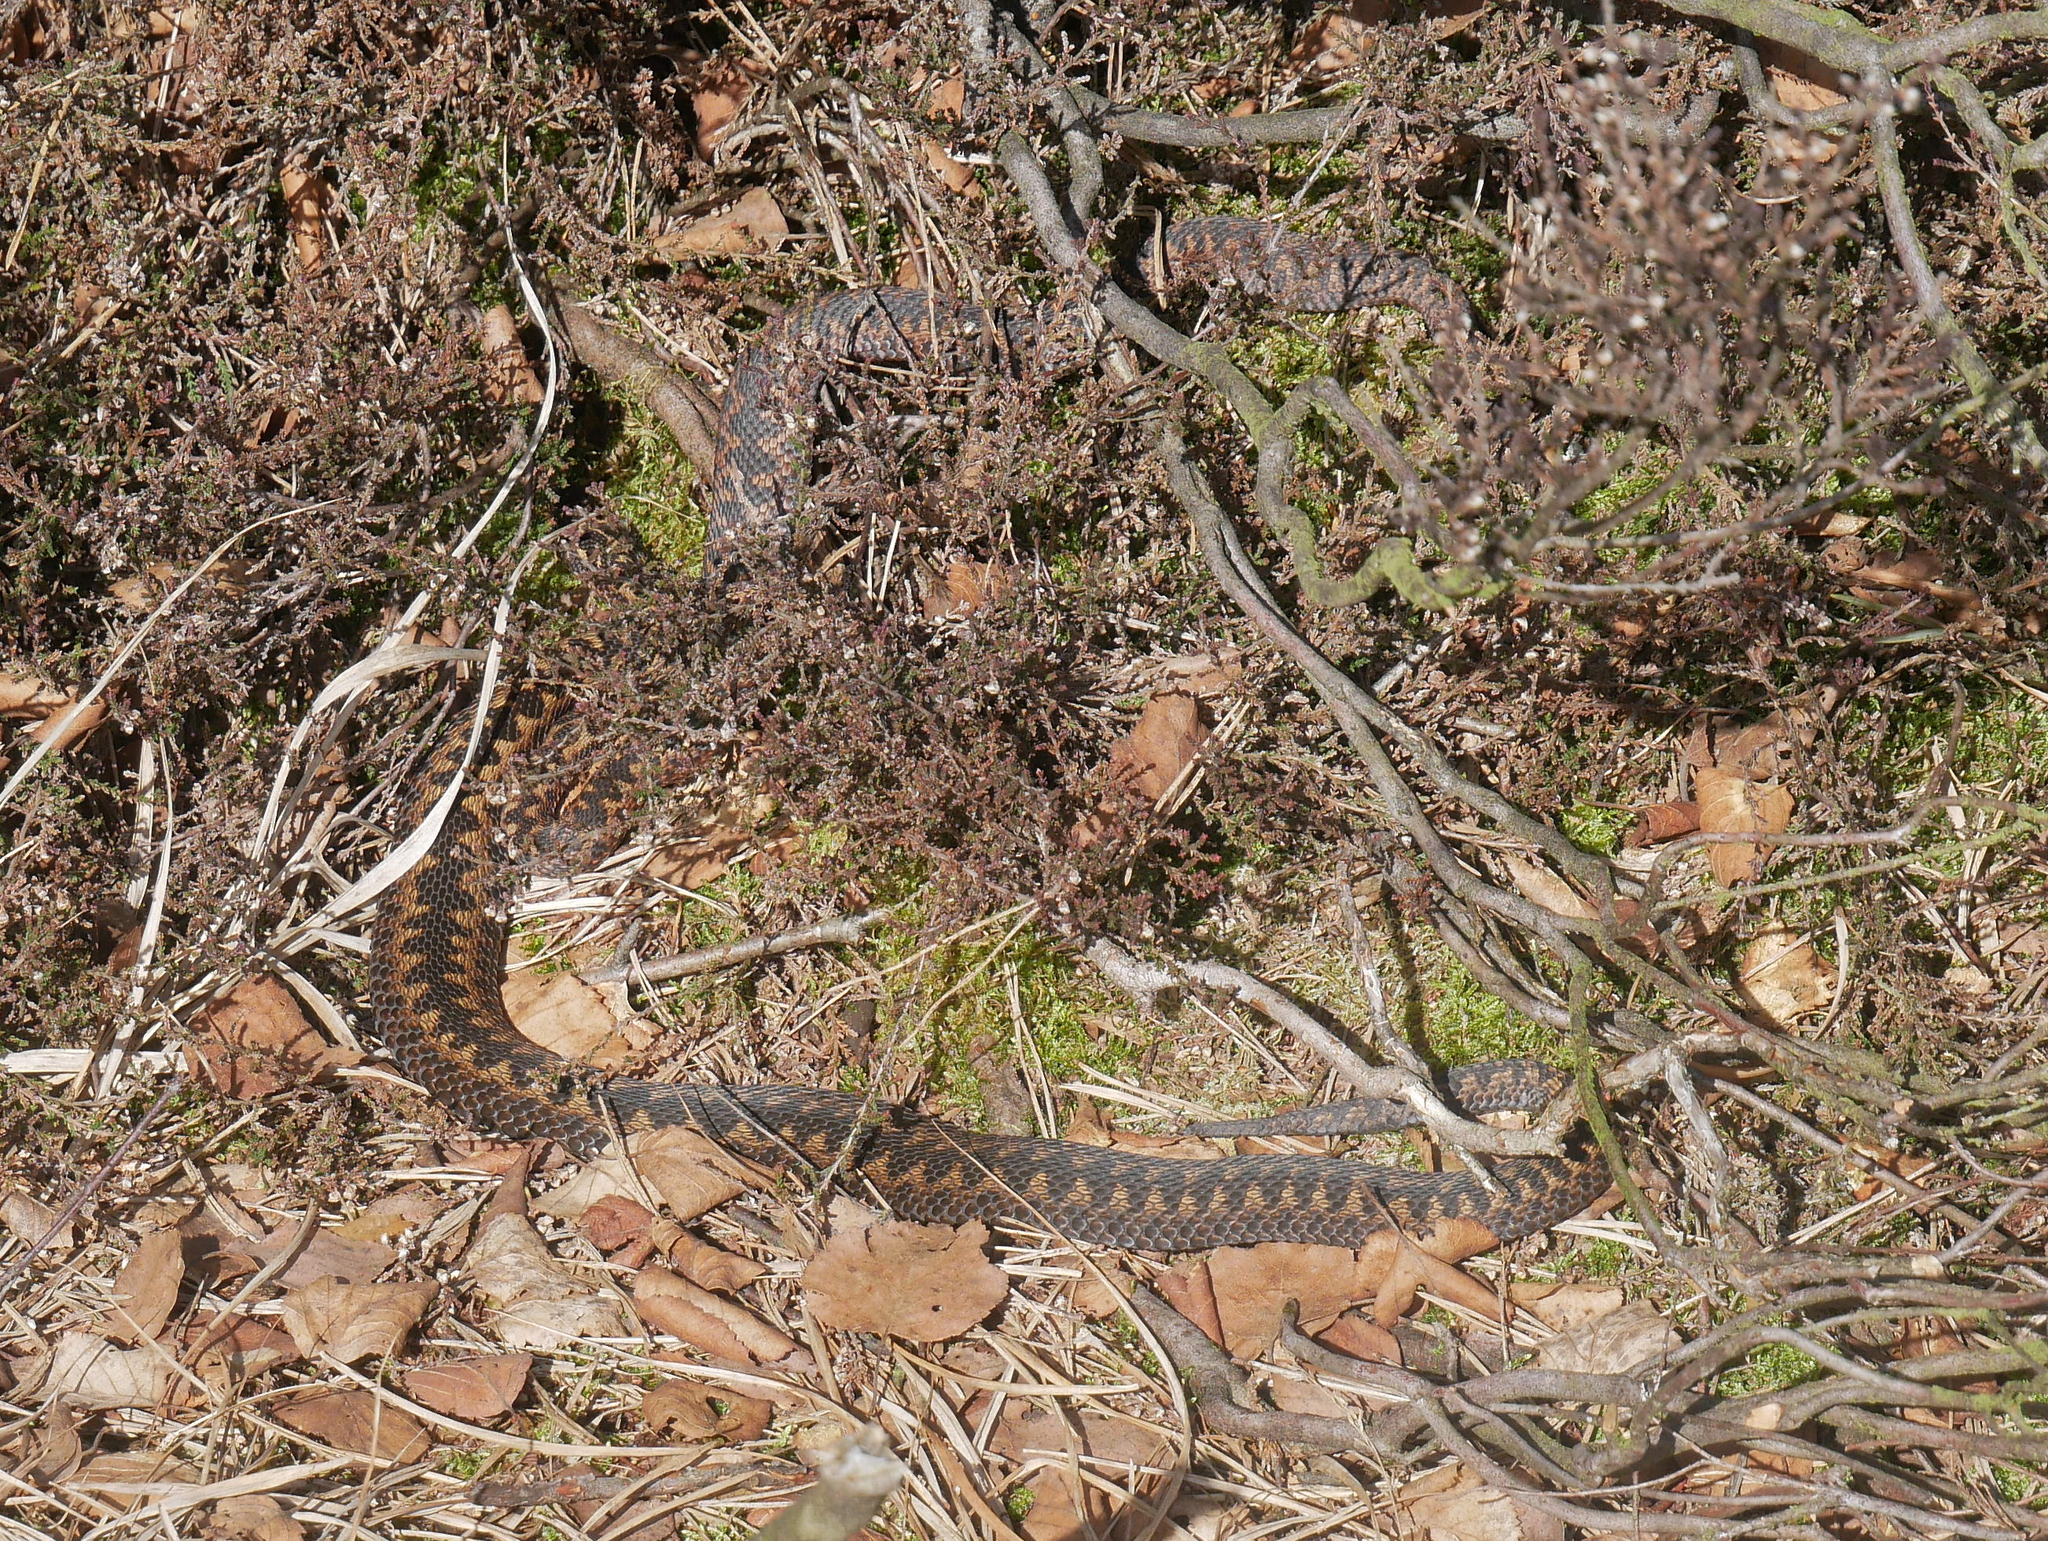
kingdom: Animalia
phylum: Chordata
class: Squamata
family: Viperidae
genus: Vipera
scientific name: Vipera berus
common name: Adder
